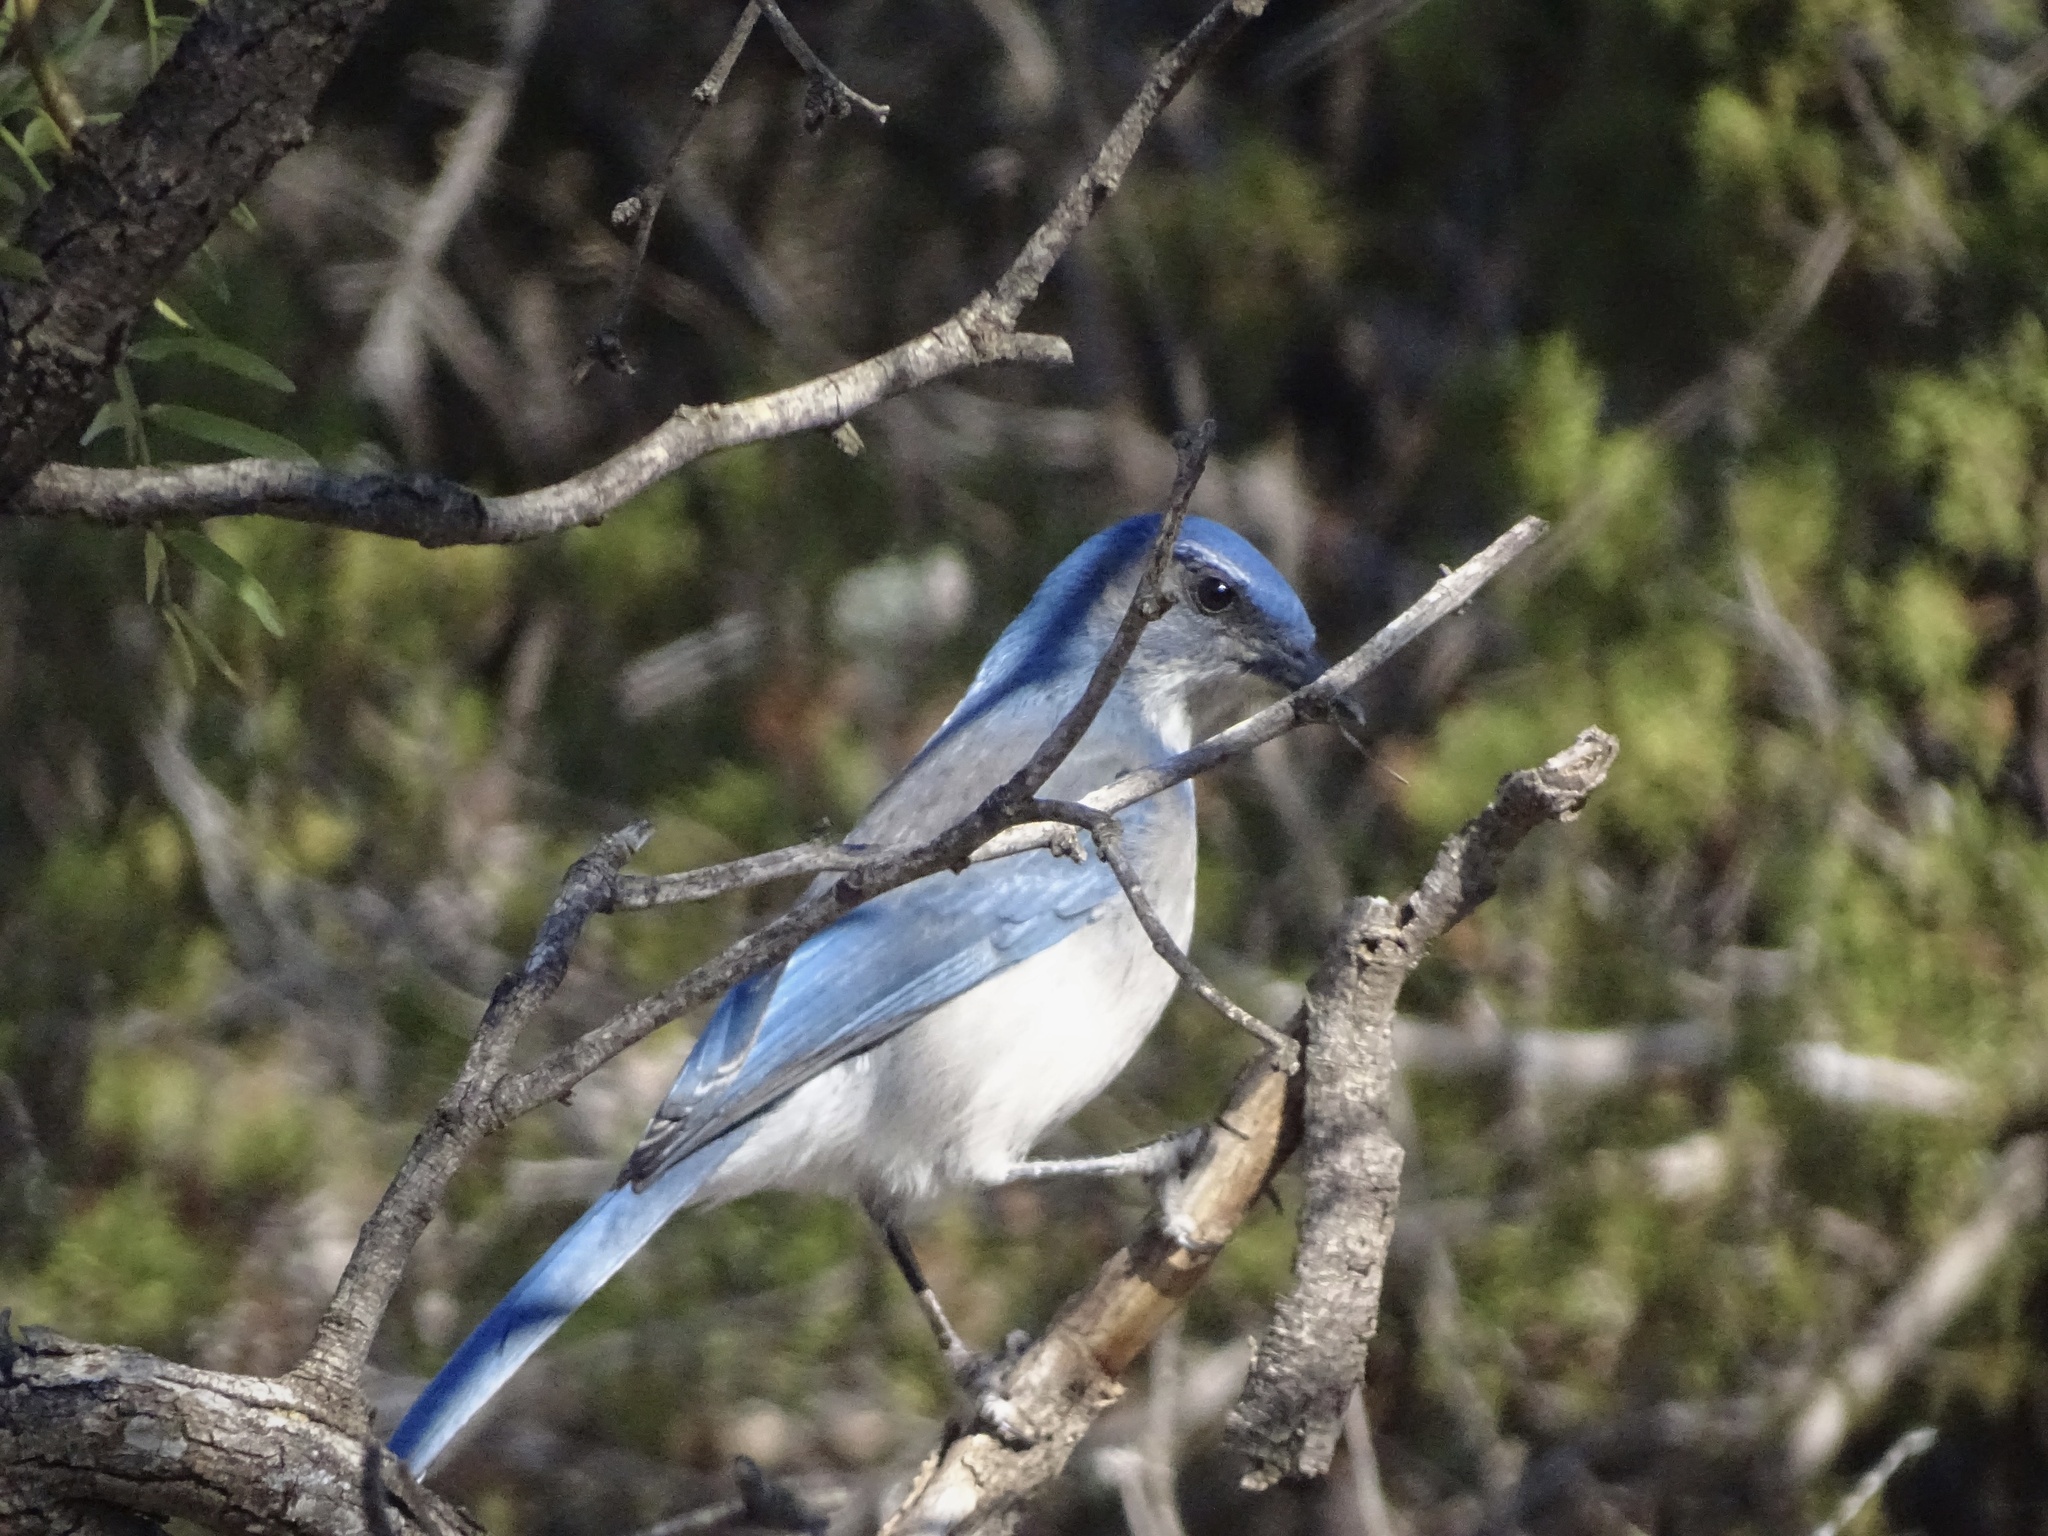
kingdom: Animalia
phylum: Chordata
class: Aves
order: Passeriformes
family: Corvidae
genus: Aphelocoma
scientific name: Aphelocoma woodhouseii
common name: Woodhouse's scrub-jay
